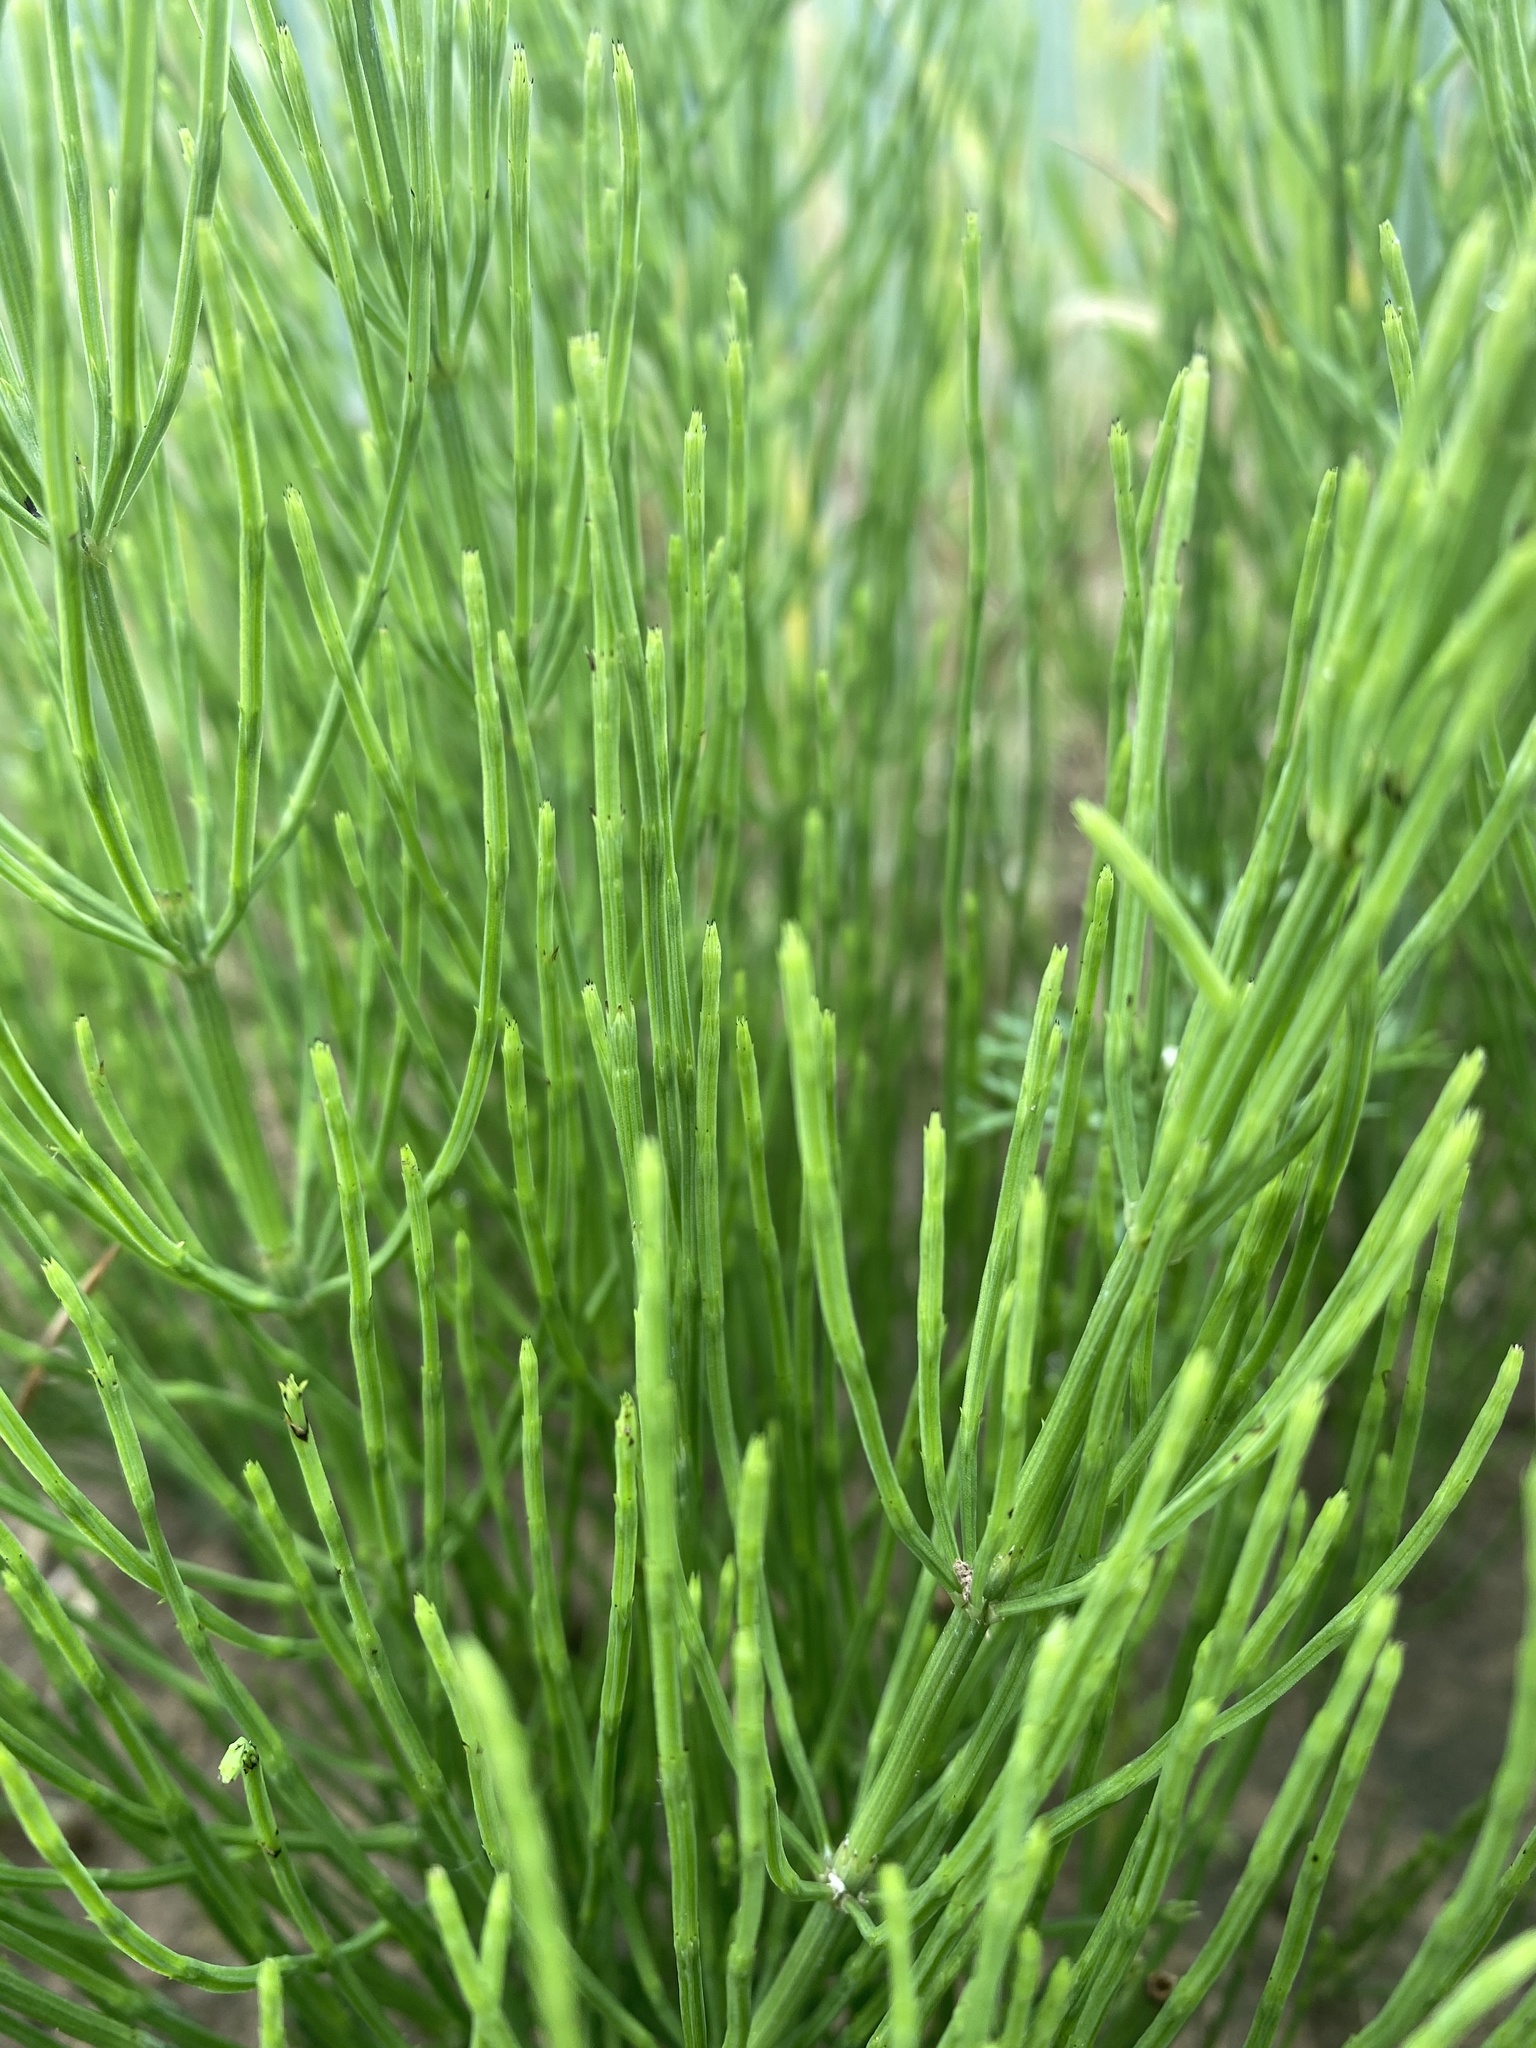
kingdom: Plantae
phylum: Tracheophyta
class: Polypodiopsida
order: Equisetales
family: Equisetaceae
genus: Equisetum
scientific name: Equisetum arvense
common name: Field horsetail
